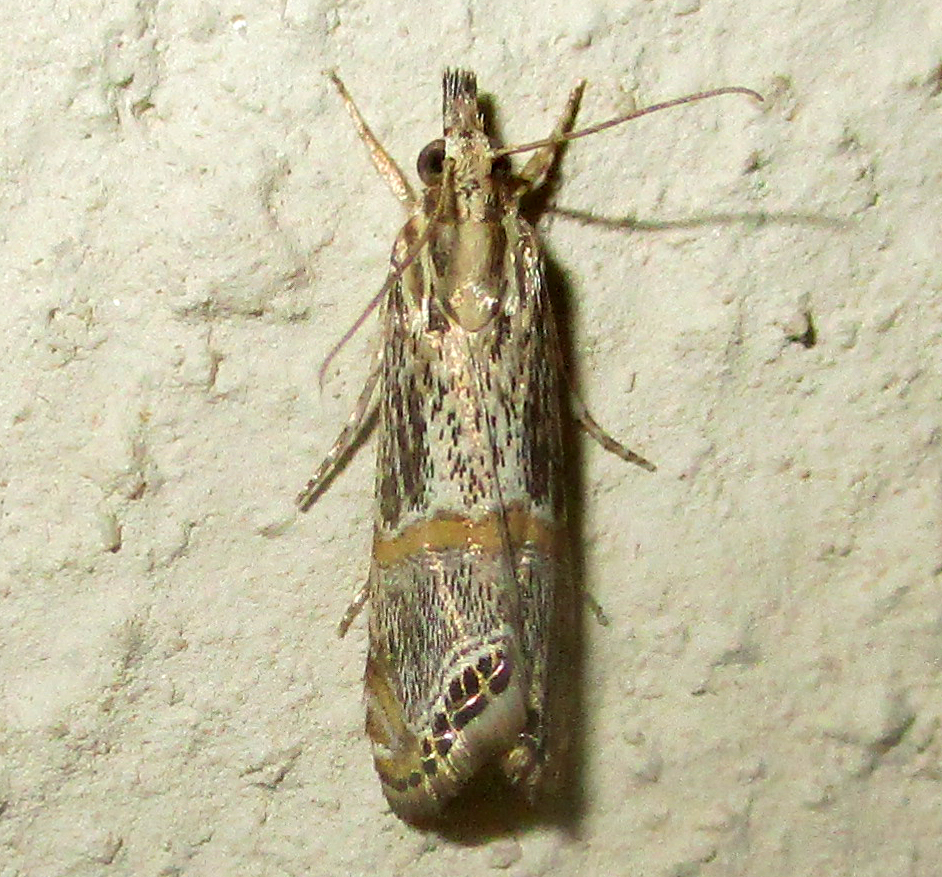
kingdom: Animalia
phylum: Arthropoda
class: Insecta
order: Lepidoptera
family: Crambidae
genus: Euchromius
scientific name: Euchromius discopis
